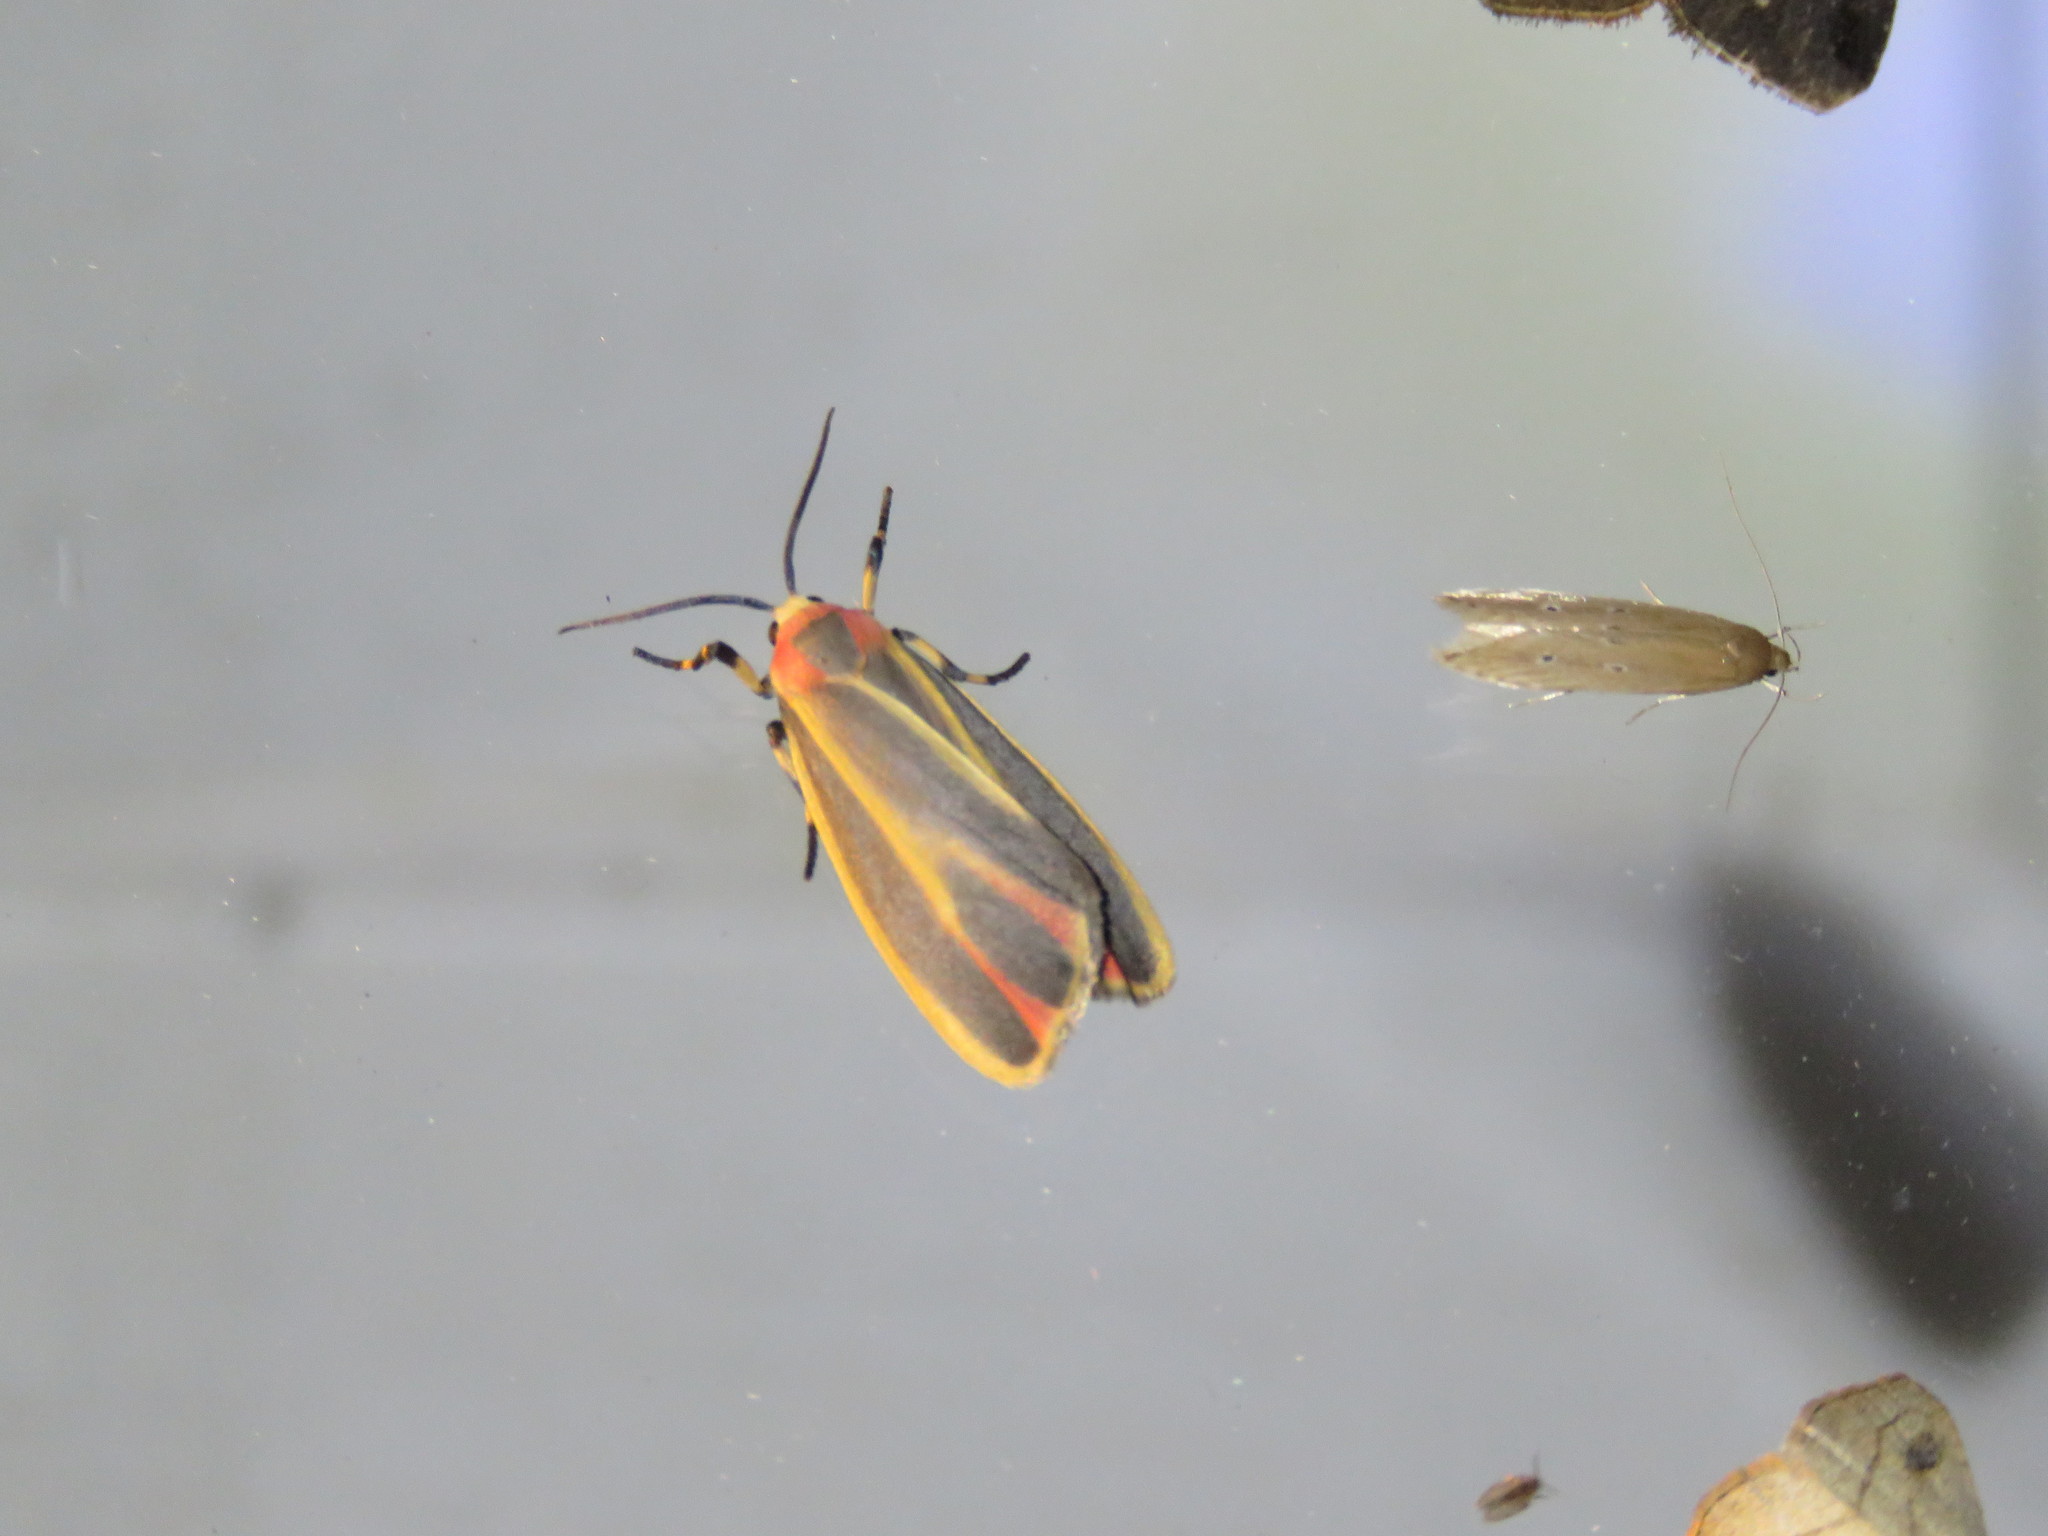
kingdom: Animalia
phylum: Arthropoda
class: Insecta
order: Lepidoptera
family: Erebidae
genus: Hypoprepia
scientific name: Hypoprepia fucosa
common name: Painted lichen moth
